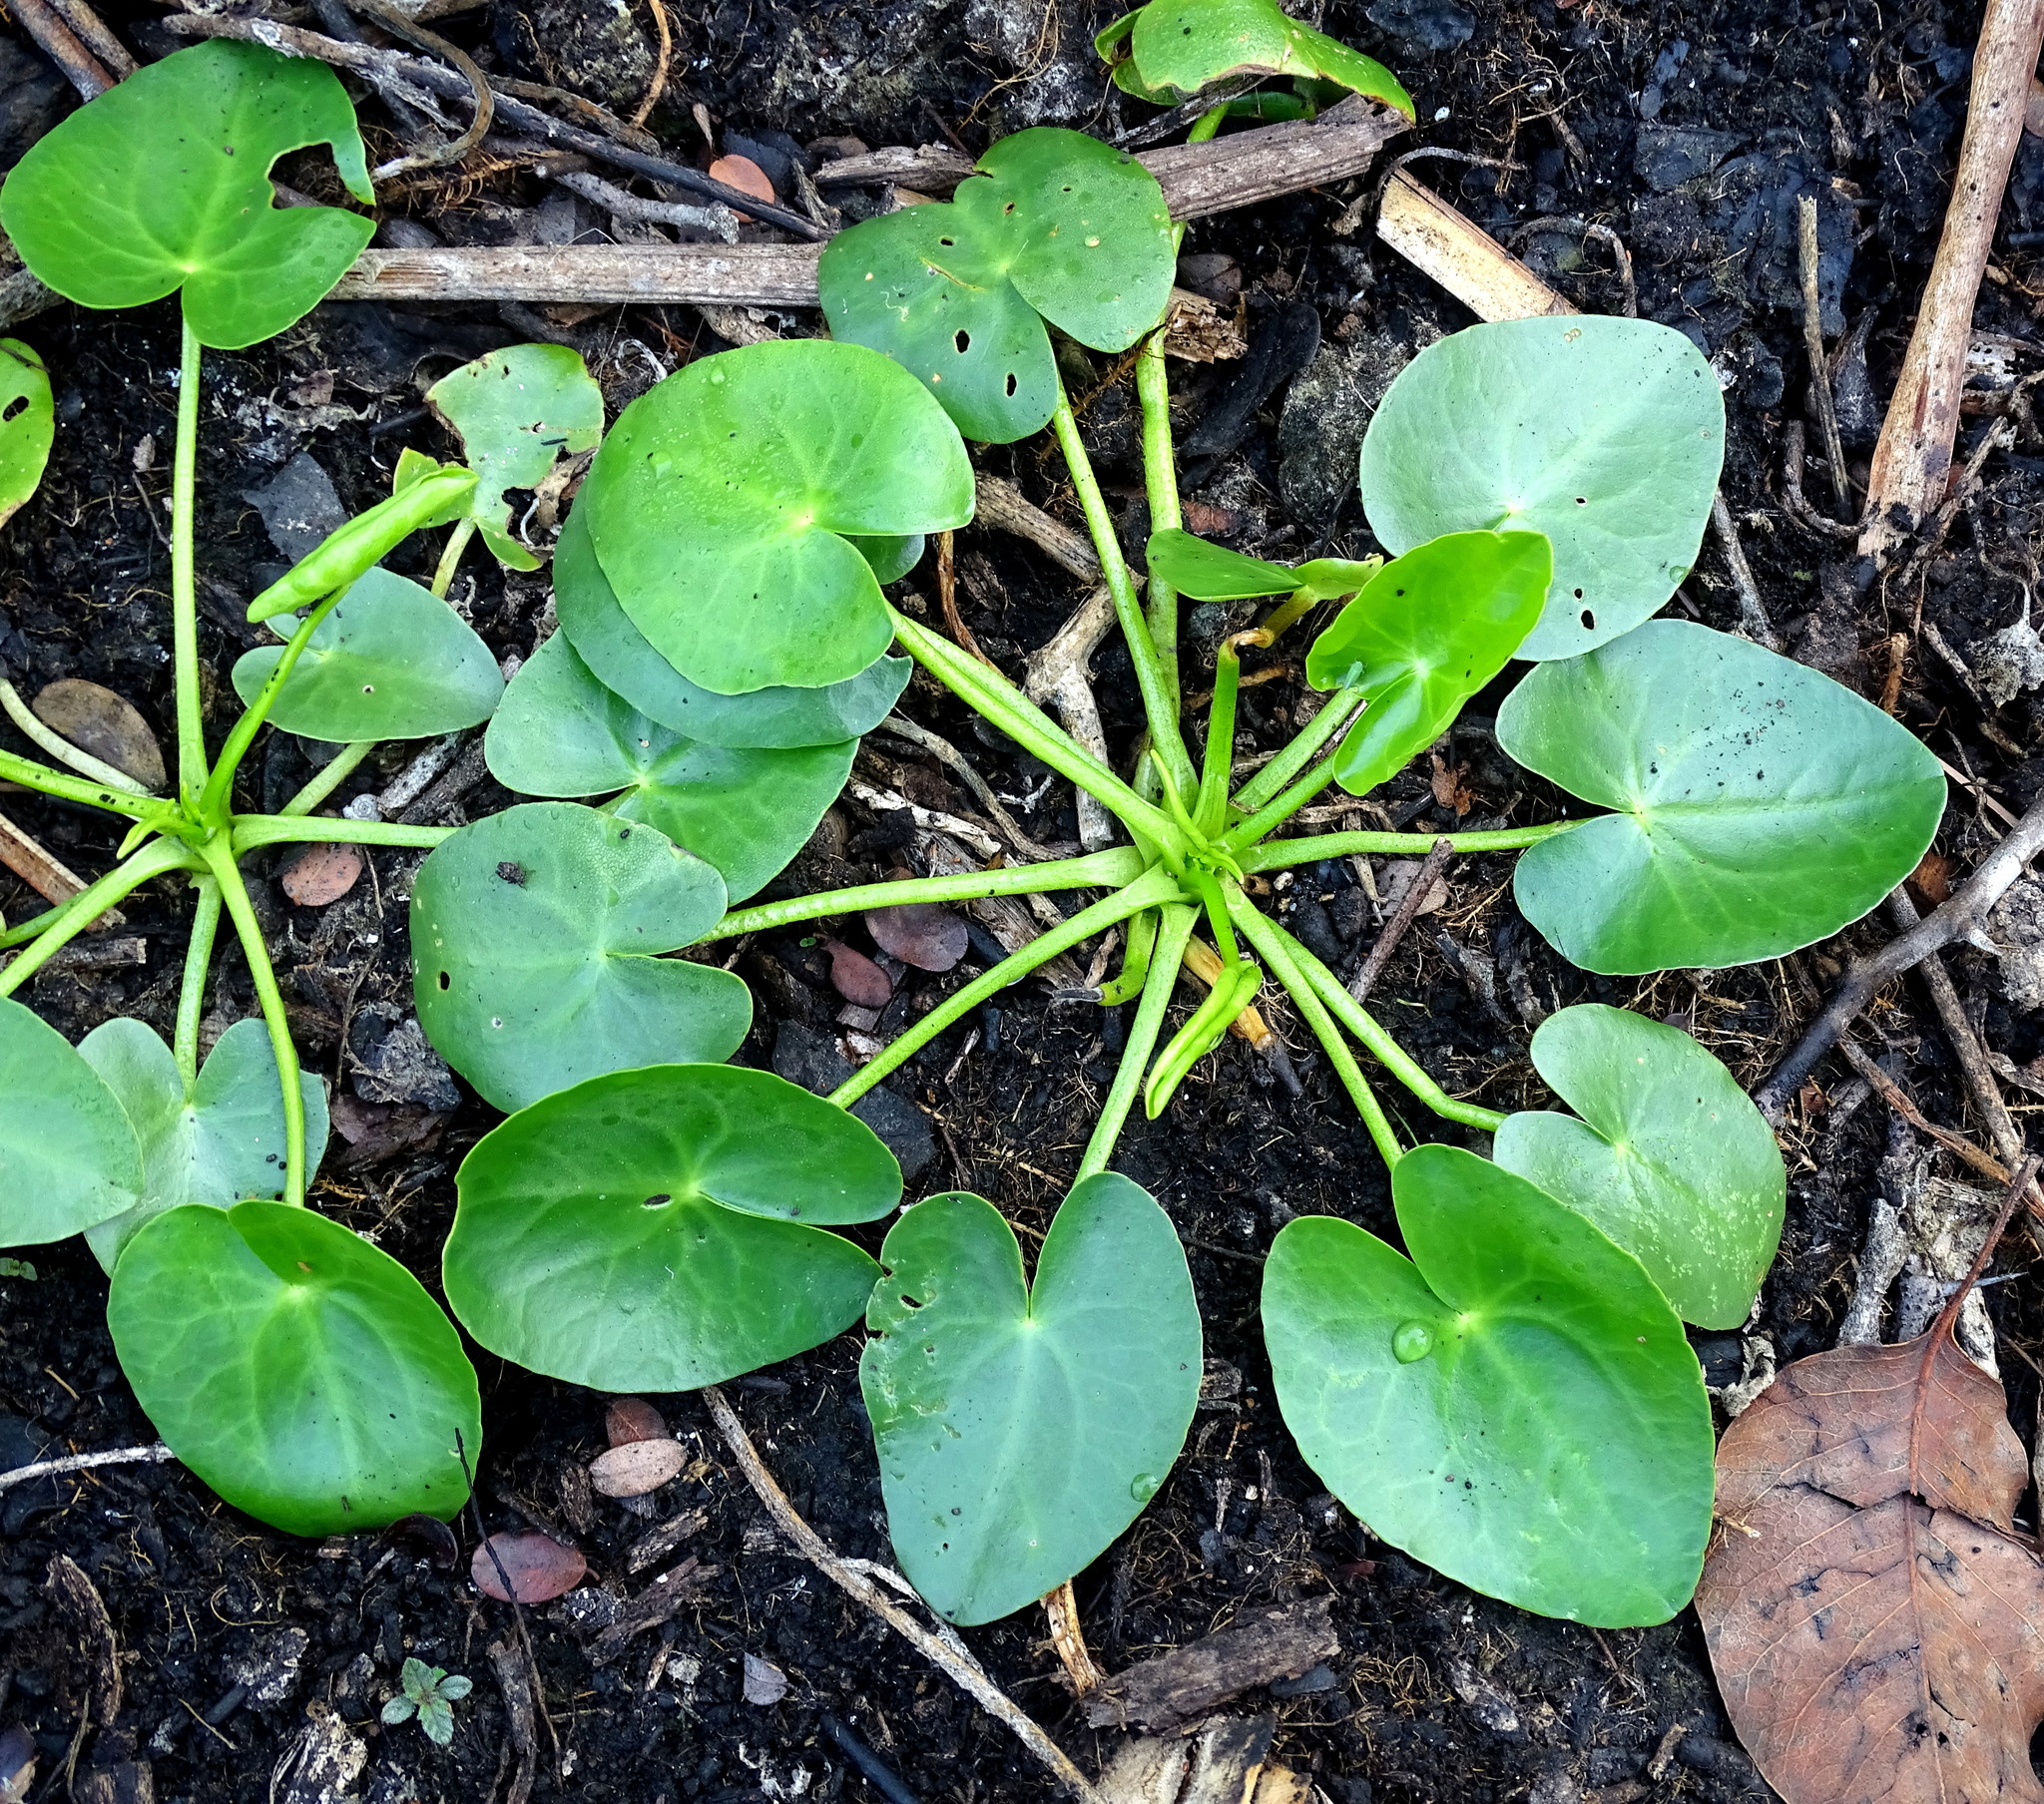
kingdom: Plantae
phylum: Tracheophyta
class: Liliopsida
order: Alismatales
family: Alismataceae
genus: Sagittaria
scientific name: Sagittaria guayanensis
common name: Guyanese arrowhead
